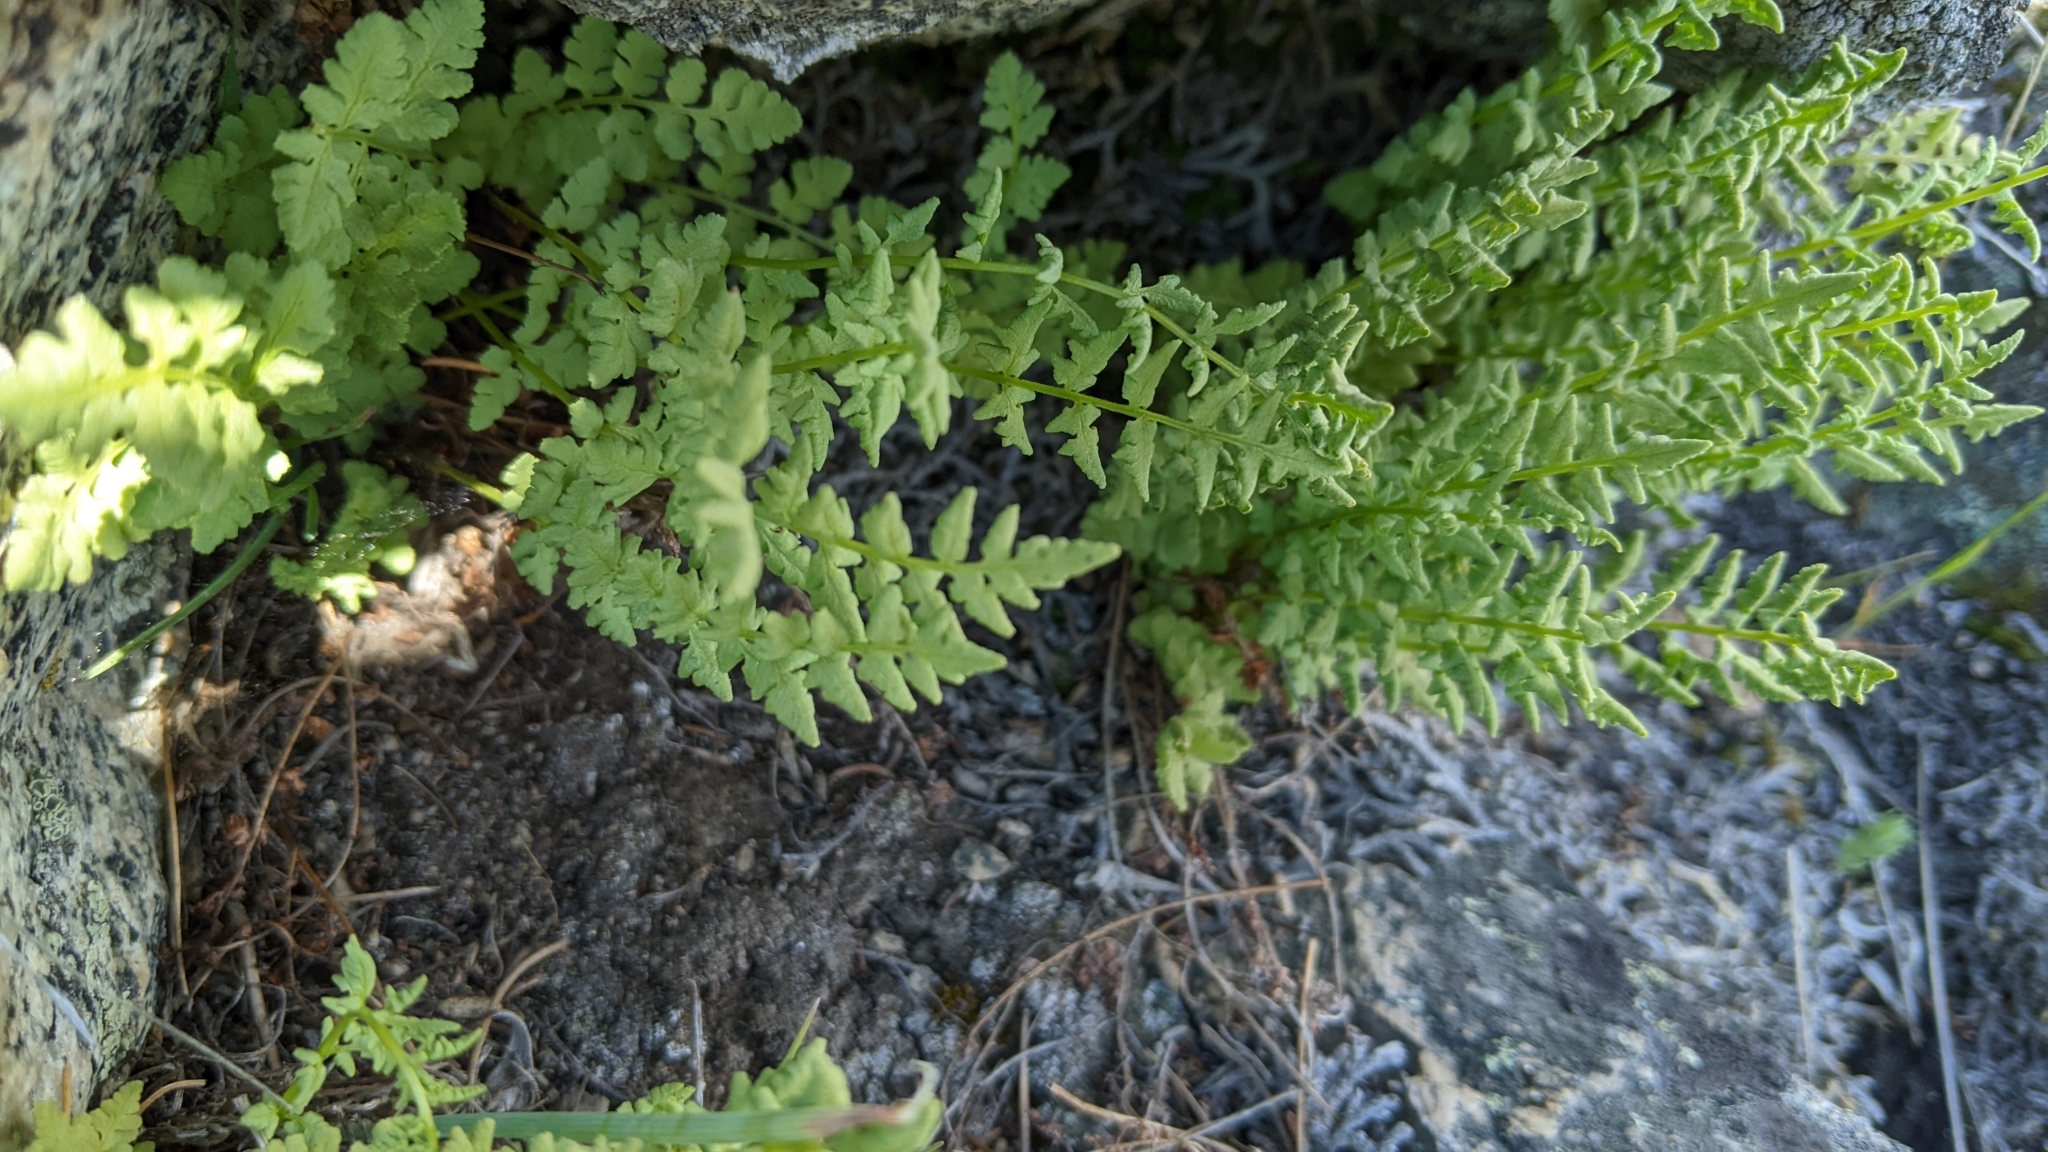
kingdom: Plantae
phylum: Tracheophyta
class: Polypodiopsida
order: Polypodiales
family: Woodsiaceae
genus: Physematium
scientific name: Physematium oreganum
